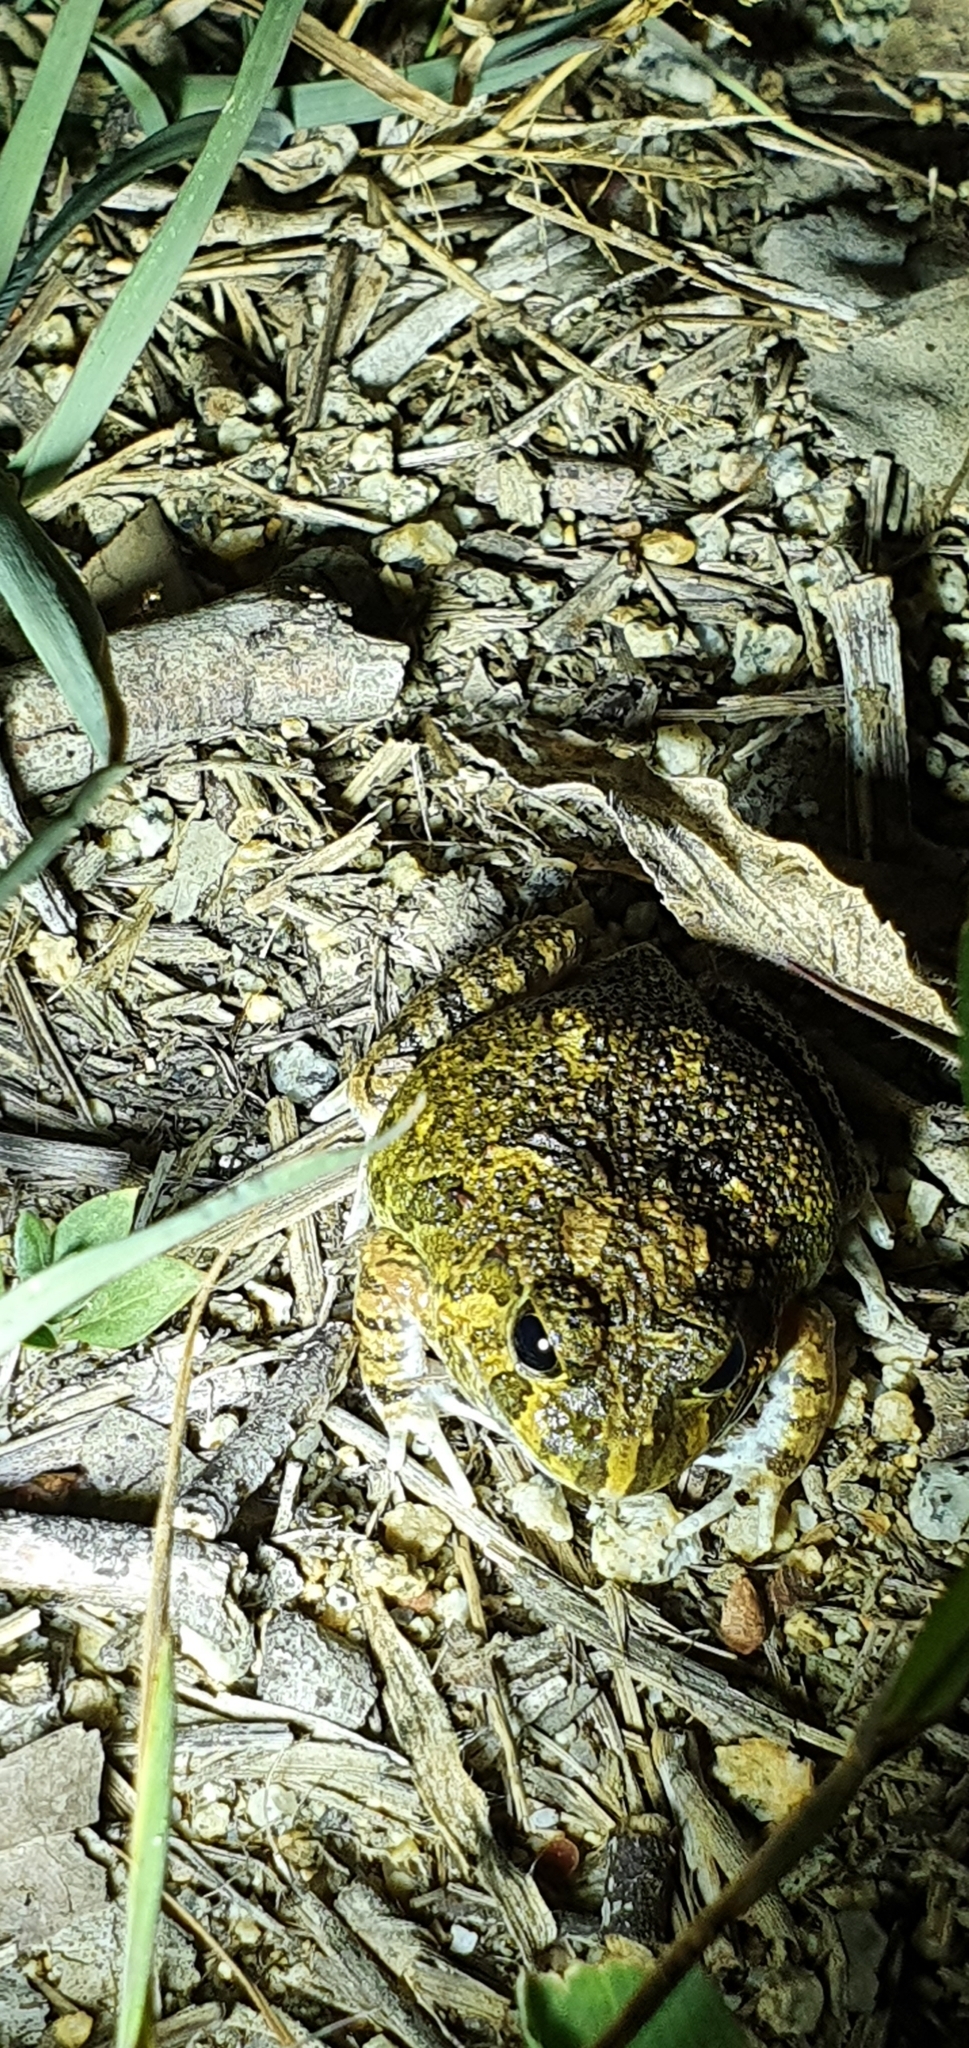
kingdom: Animalia
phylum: Chordata
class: Amphibia
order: Anura
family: Limnodynastidae
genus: Platyplectrum
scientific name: Platyplectrum ornatum
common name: Ornate burrowing frog
